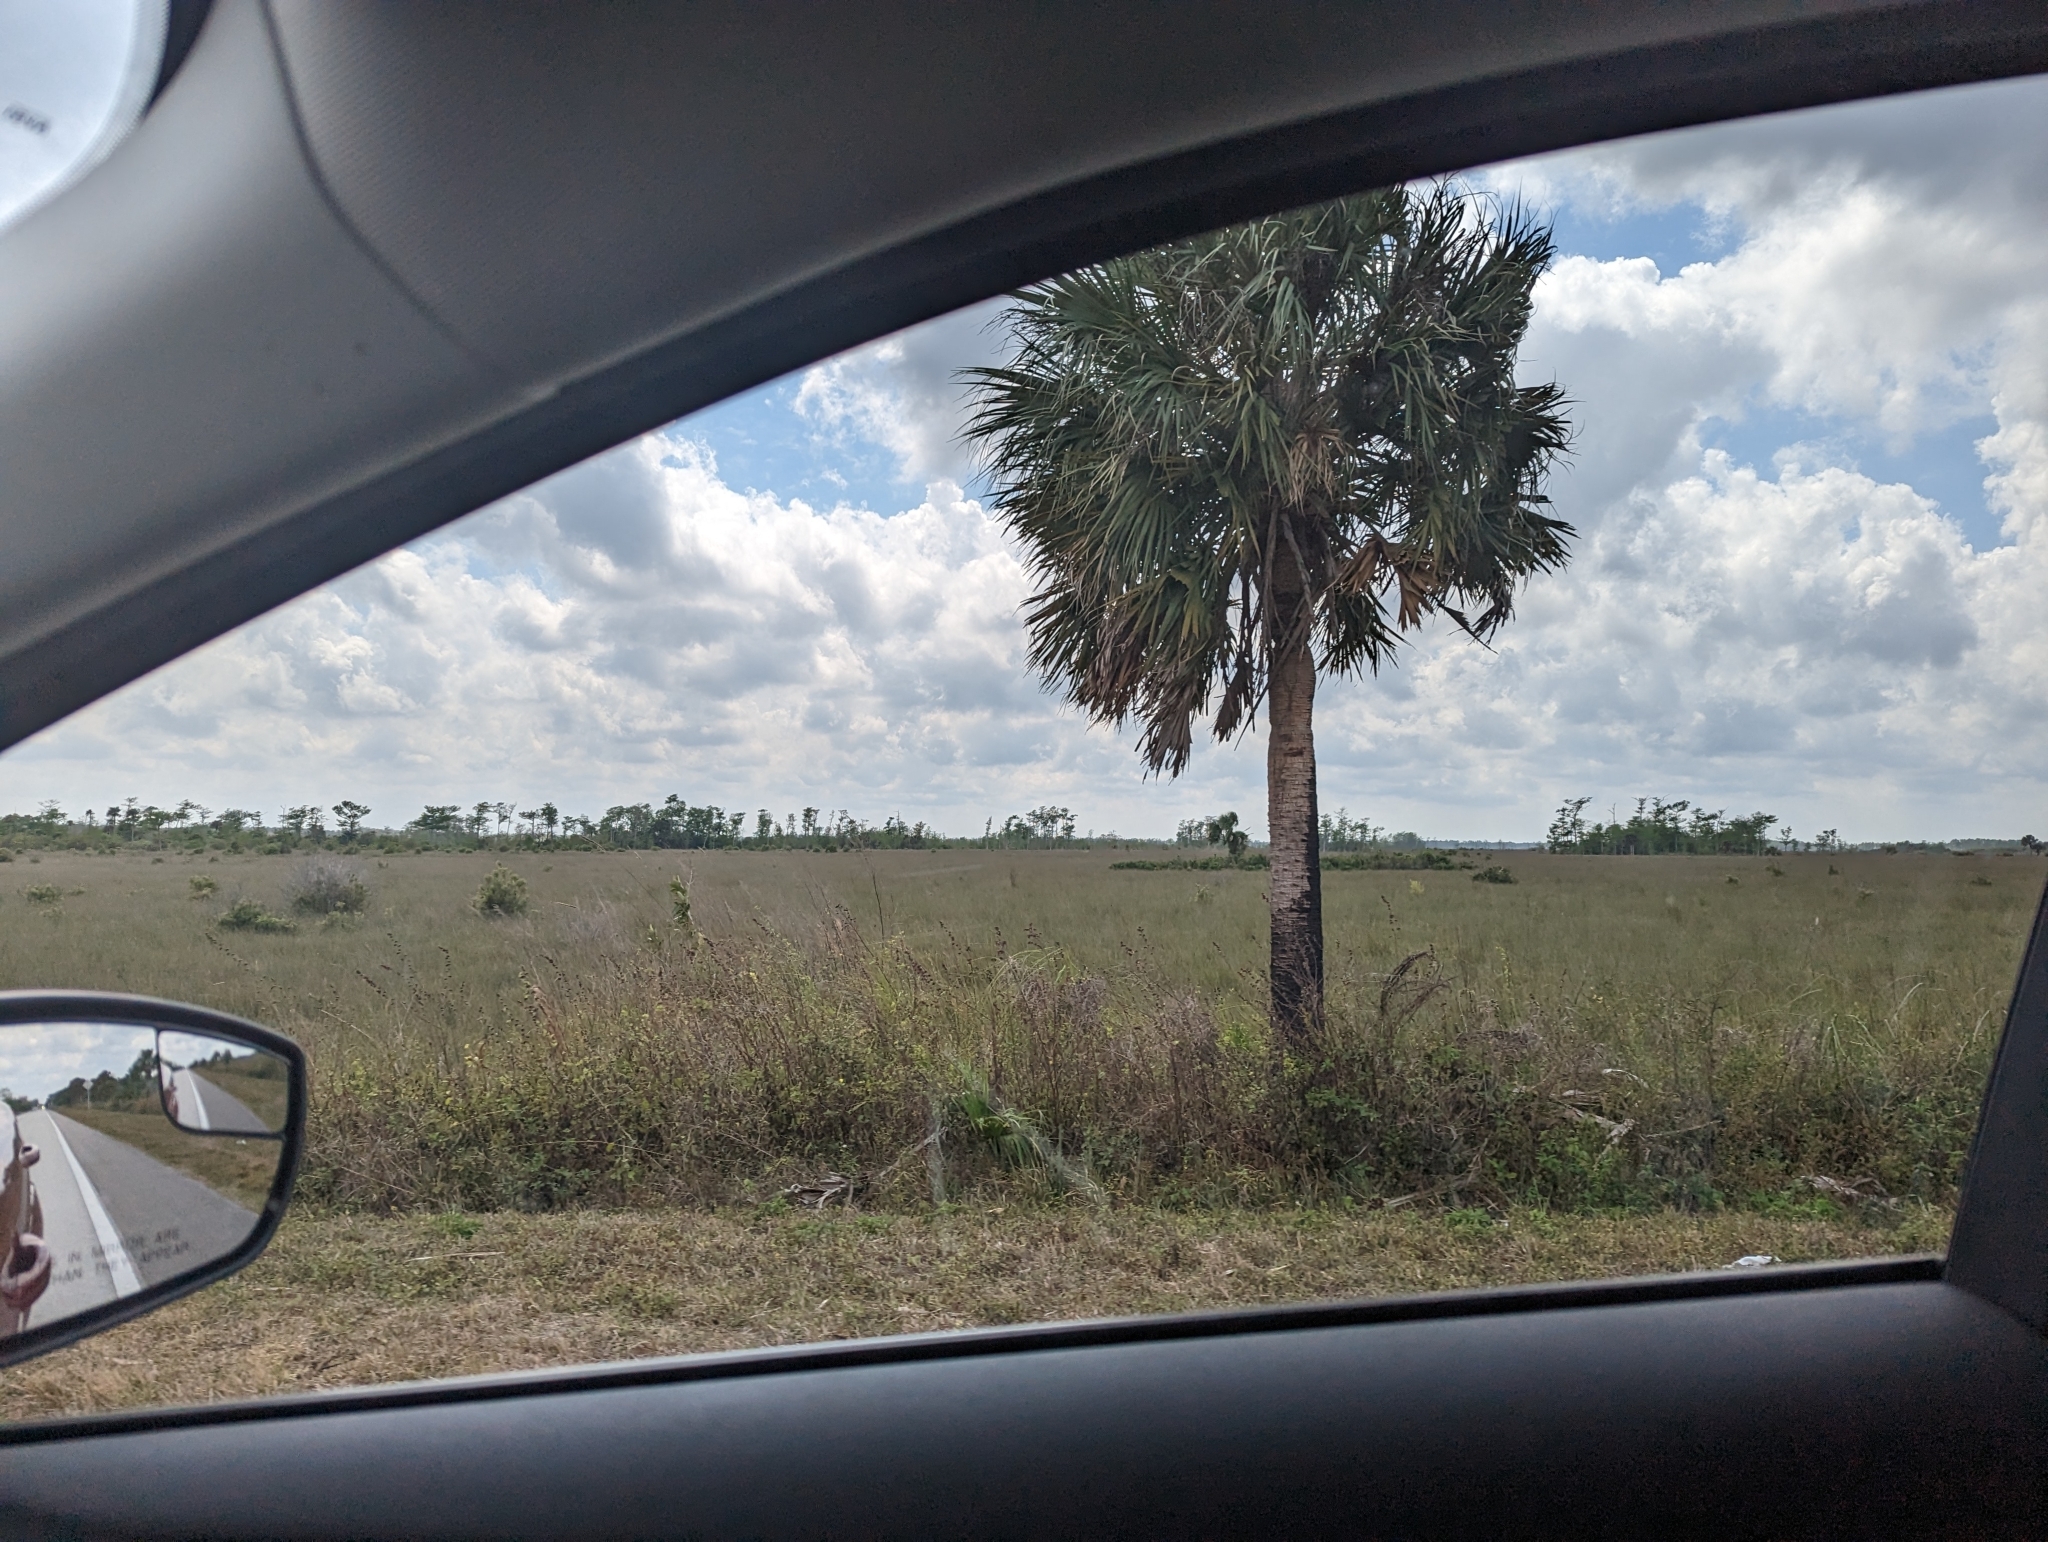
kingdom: Plantae
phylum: Tracheophyta
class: Liliopsida
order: Arecales
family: Arecaceae
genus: Sabal
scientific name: Sabal palmetto
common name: Blue palmetto
